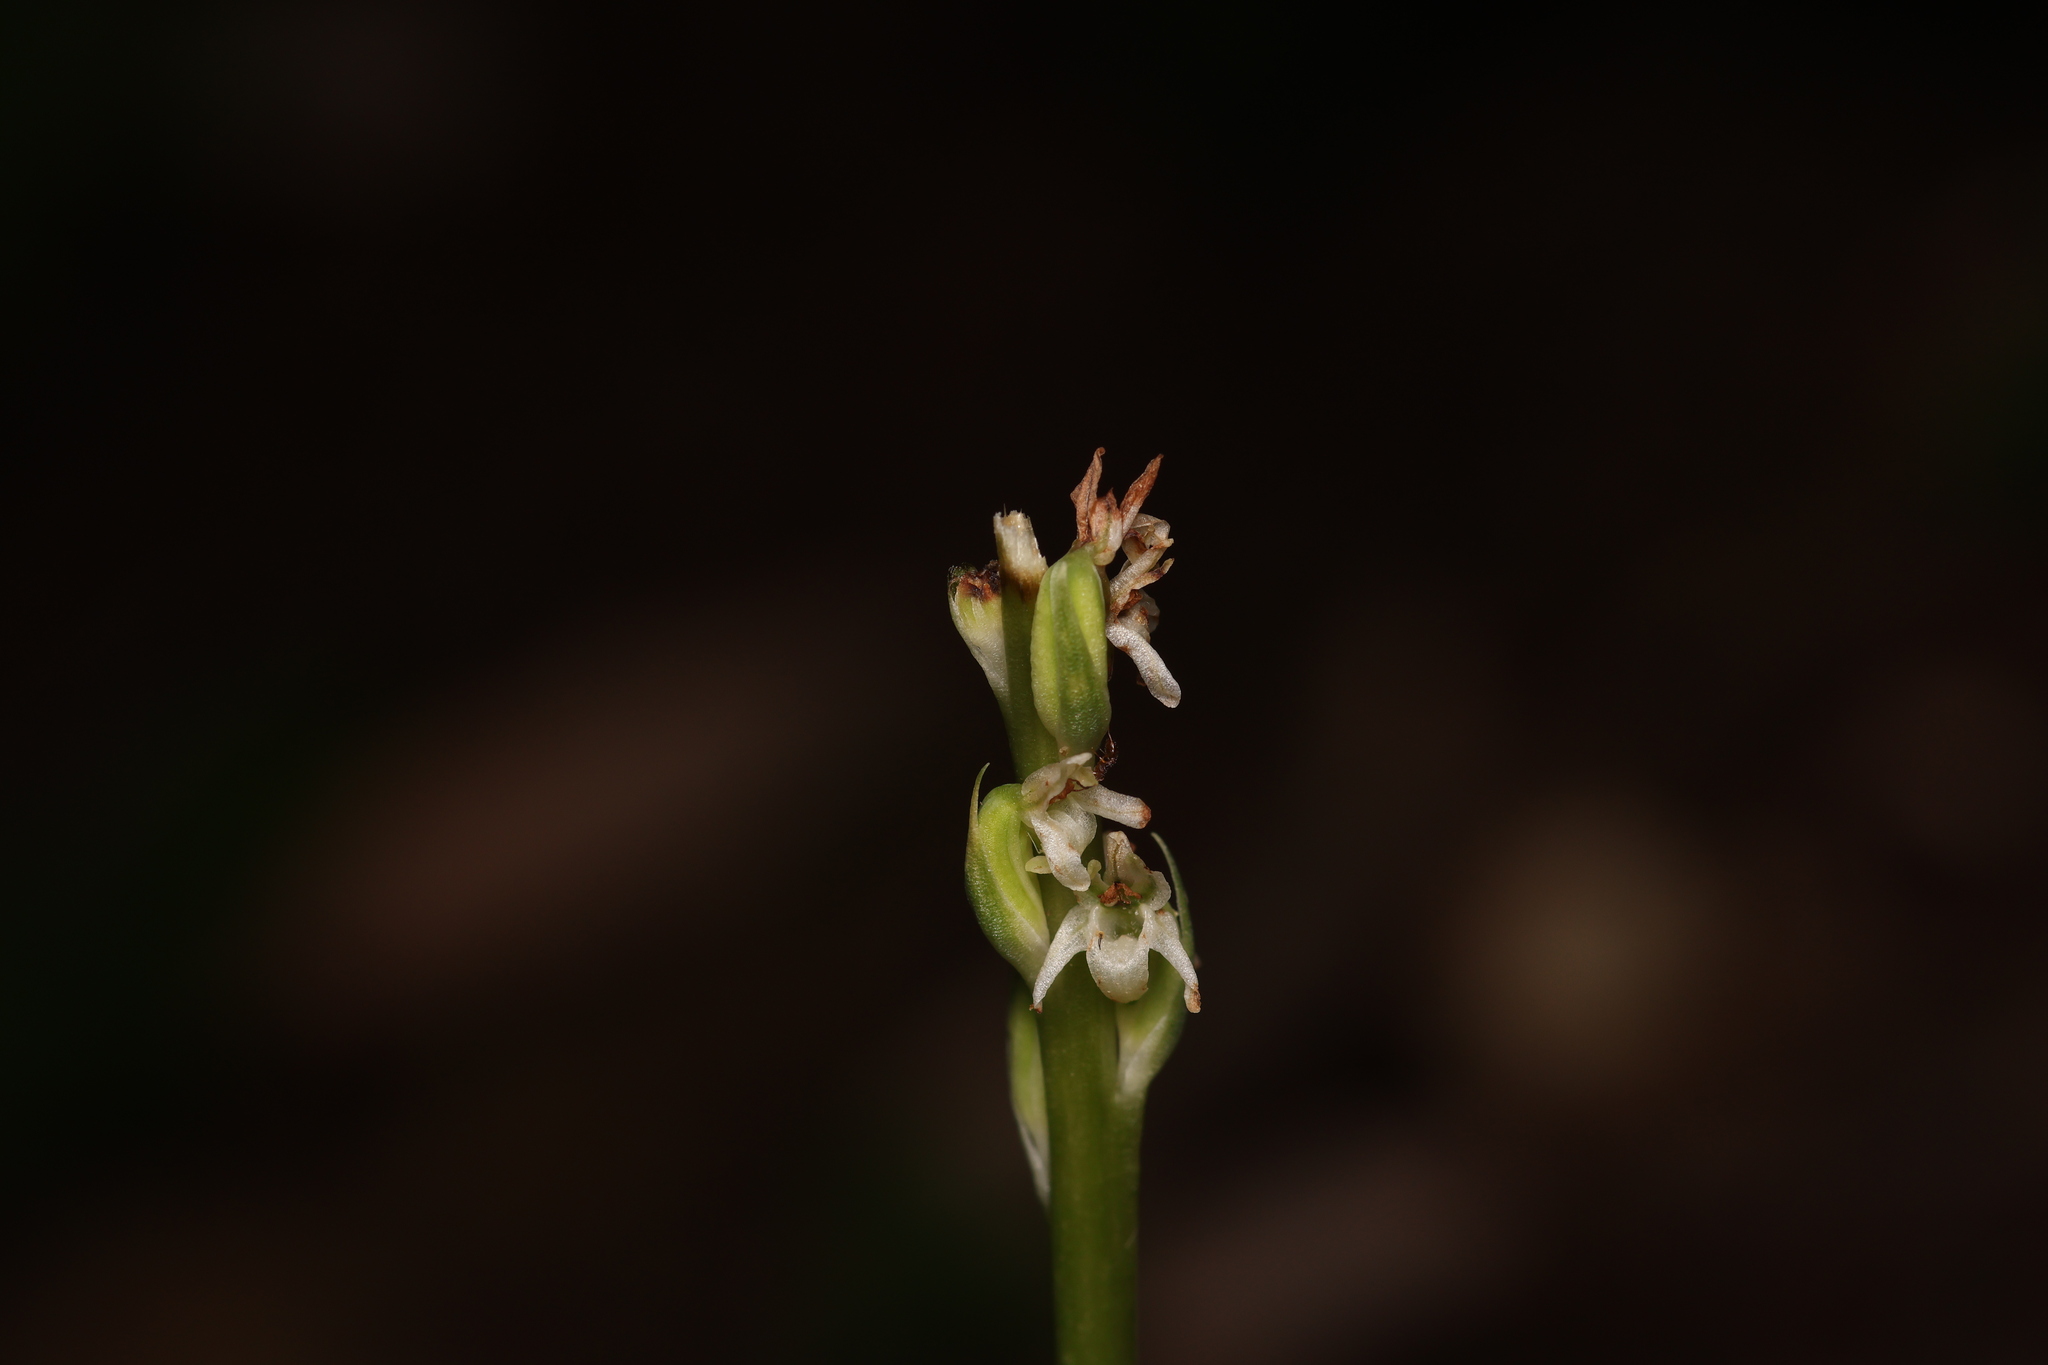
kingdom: Plantae
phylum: Tracheophyta
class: Liliopsida
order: Asparagales
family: Orchidaceae
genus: Platanthera
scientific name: Platanthera ephemerantha
